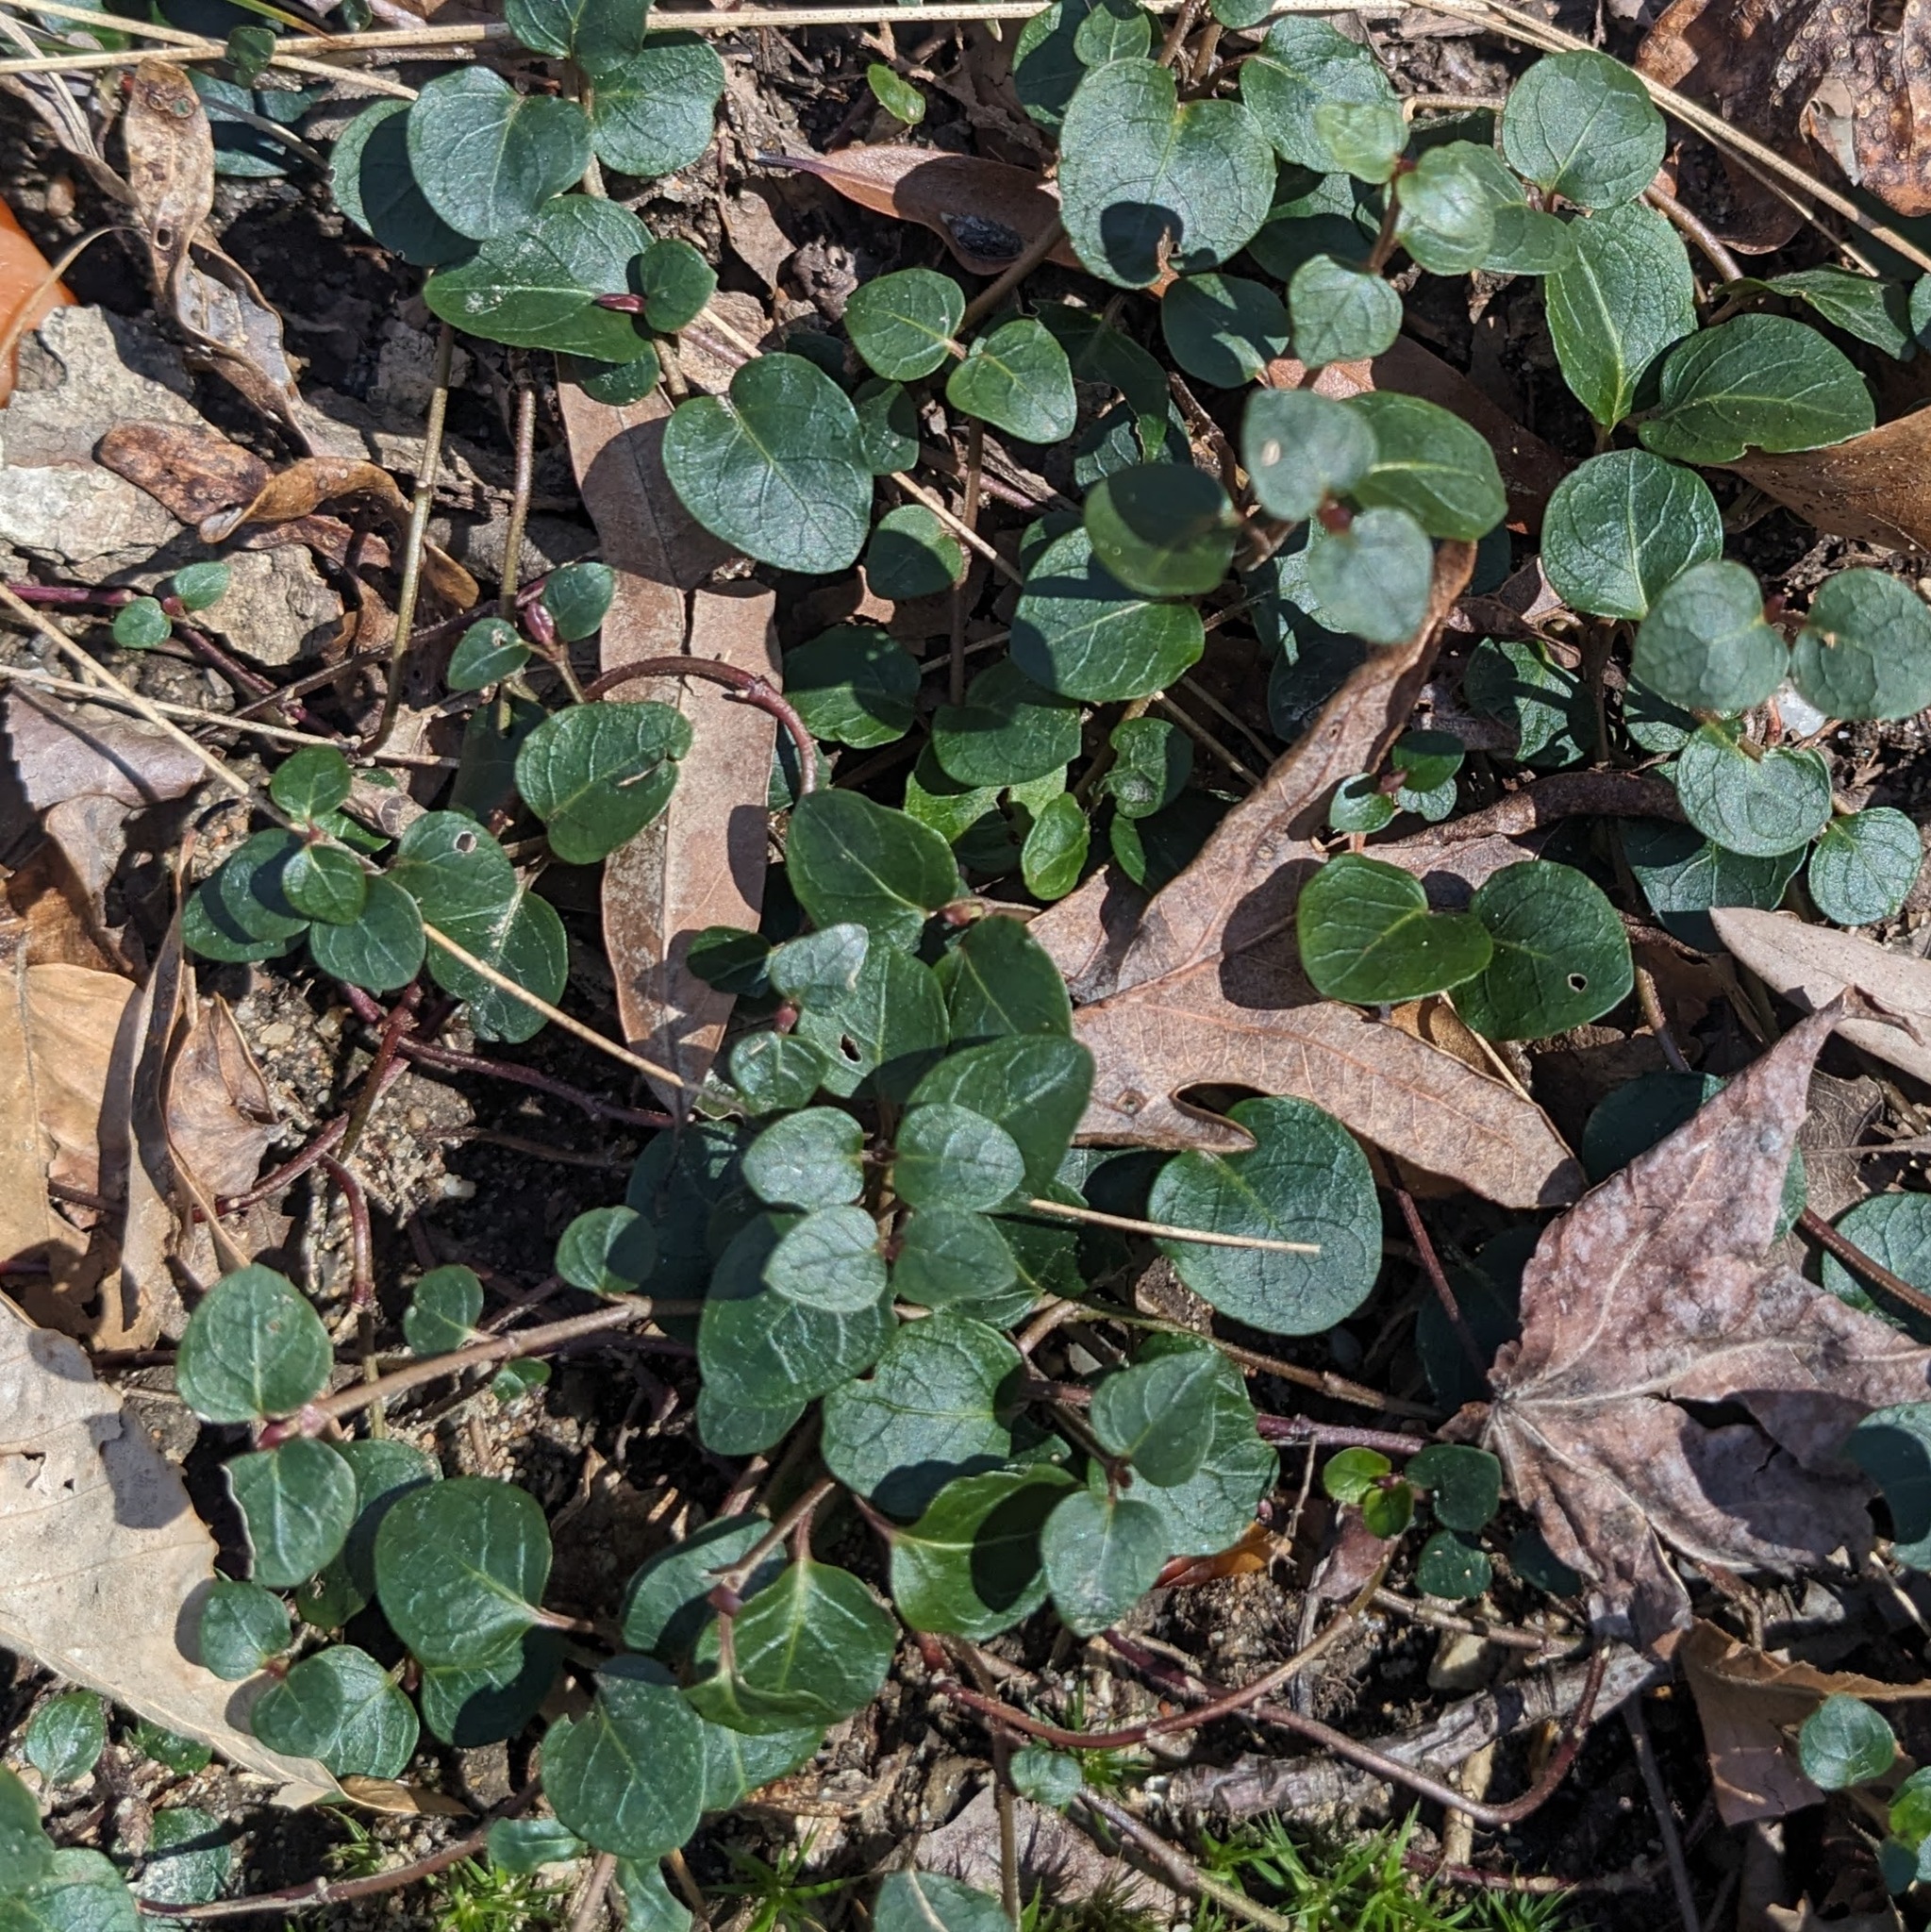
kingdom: Plantae
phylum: Tracheophyta
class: Magnoliopsida
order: Gentianales
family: Rubiaceae
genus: Mitchella
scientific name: Mitchella repens
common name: Partridge-berry
